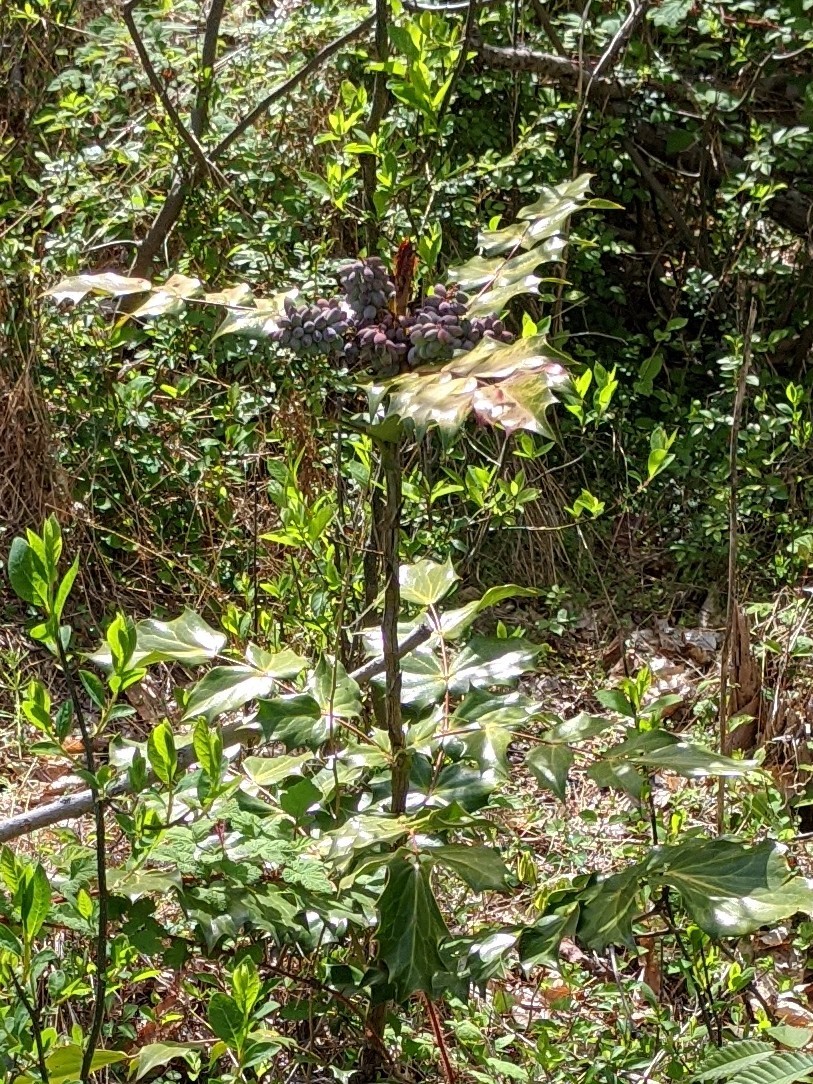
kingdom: Plantae
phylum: Tracheophyta
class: Magnoliopsida
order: Ranunculales
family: Berberidaceae
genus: Mahonia
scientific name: Mahonia bealei
